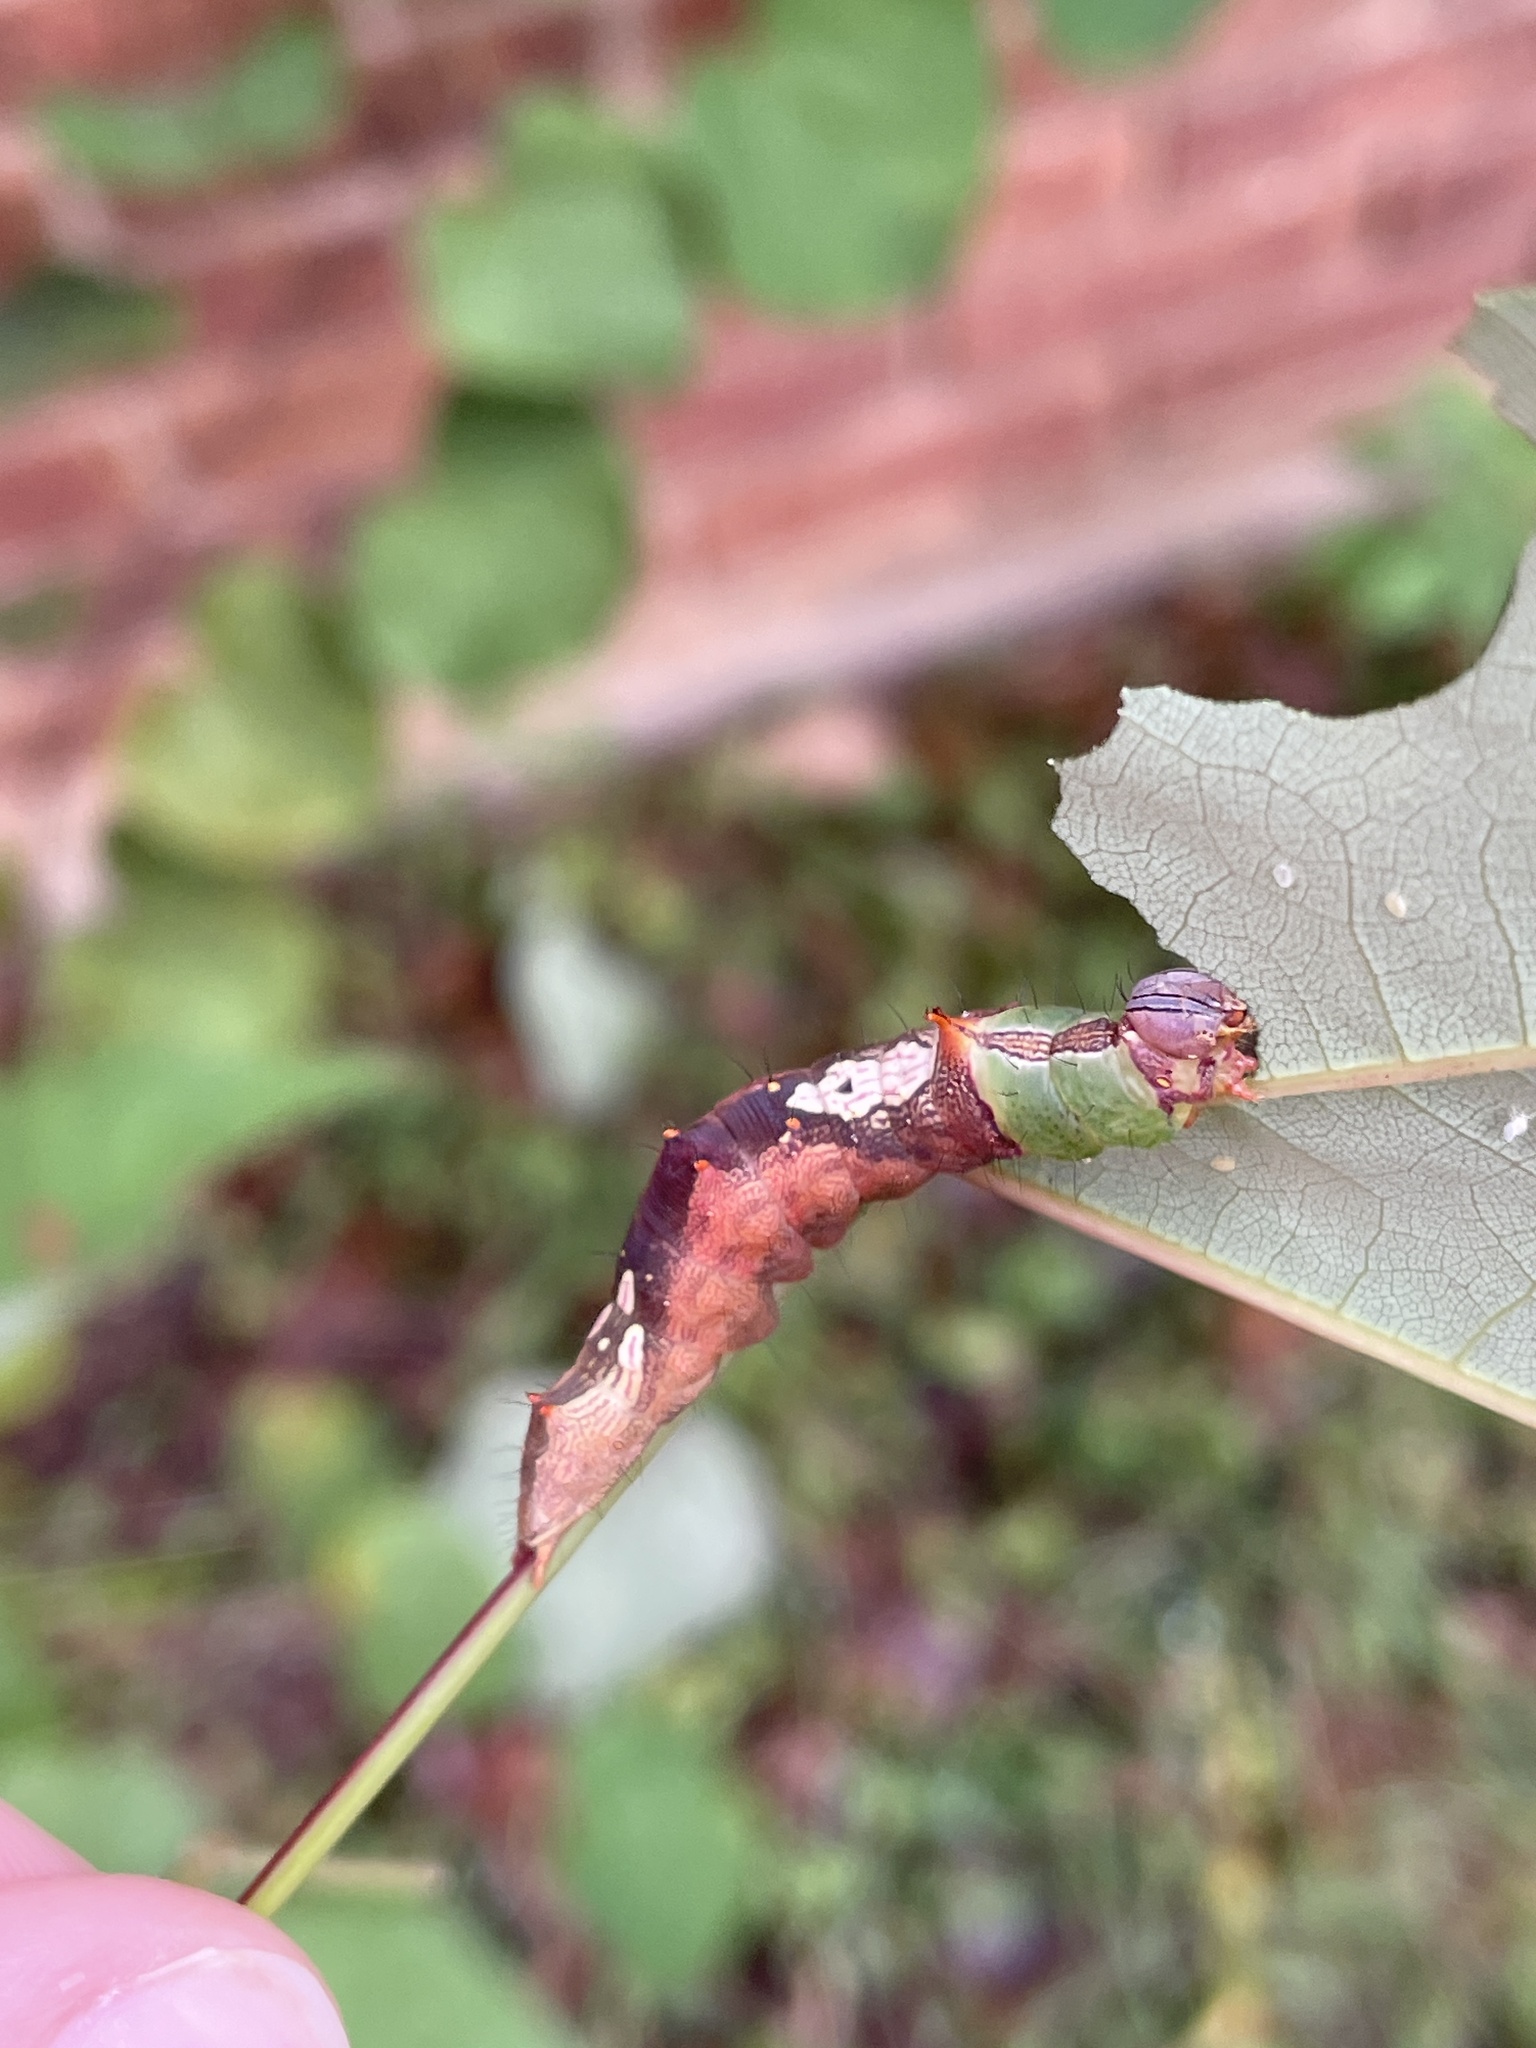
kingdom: Animalia
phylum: Arthropoda
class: Insecta
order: Lepidoptera
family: Notodontidae
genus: Schizura
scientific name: Schizura ipomaeae
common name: Morning-glory prominent
